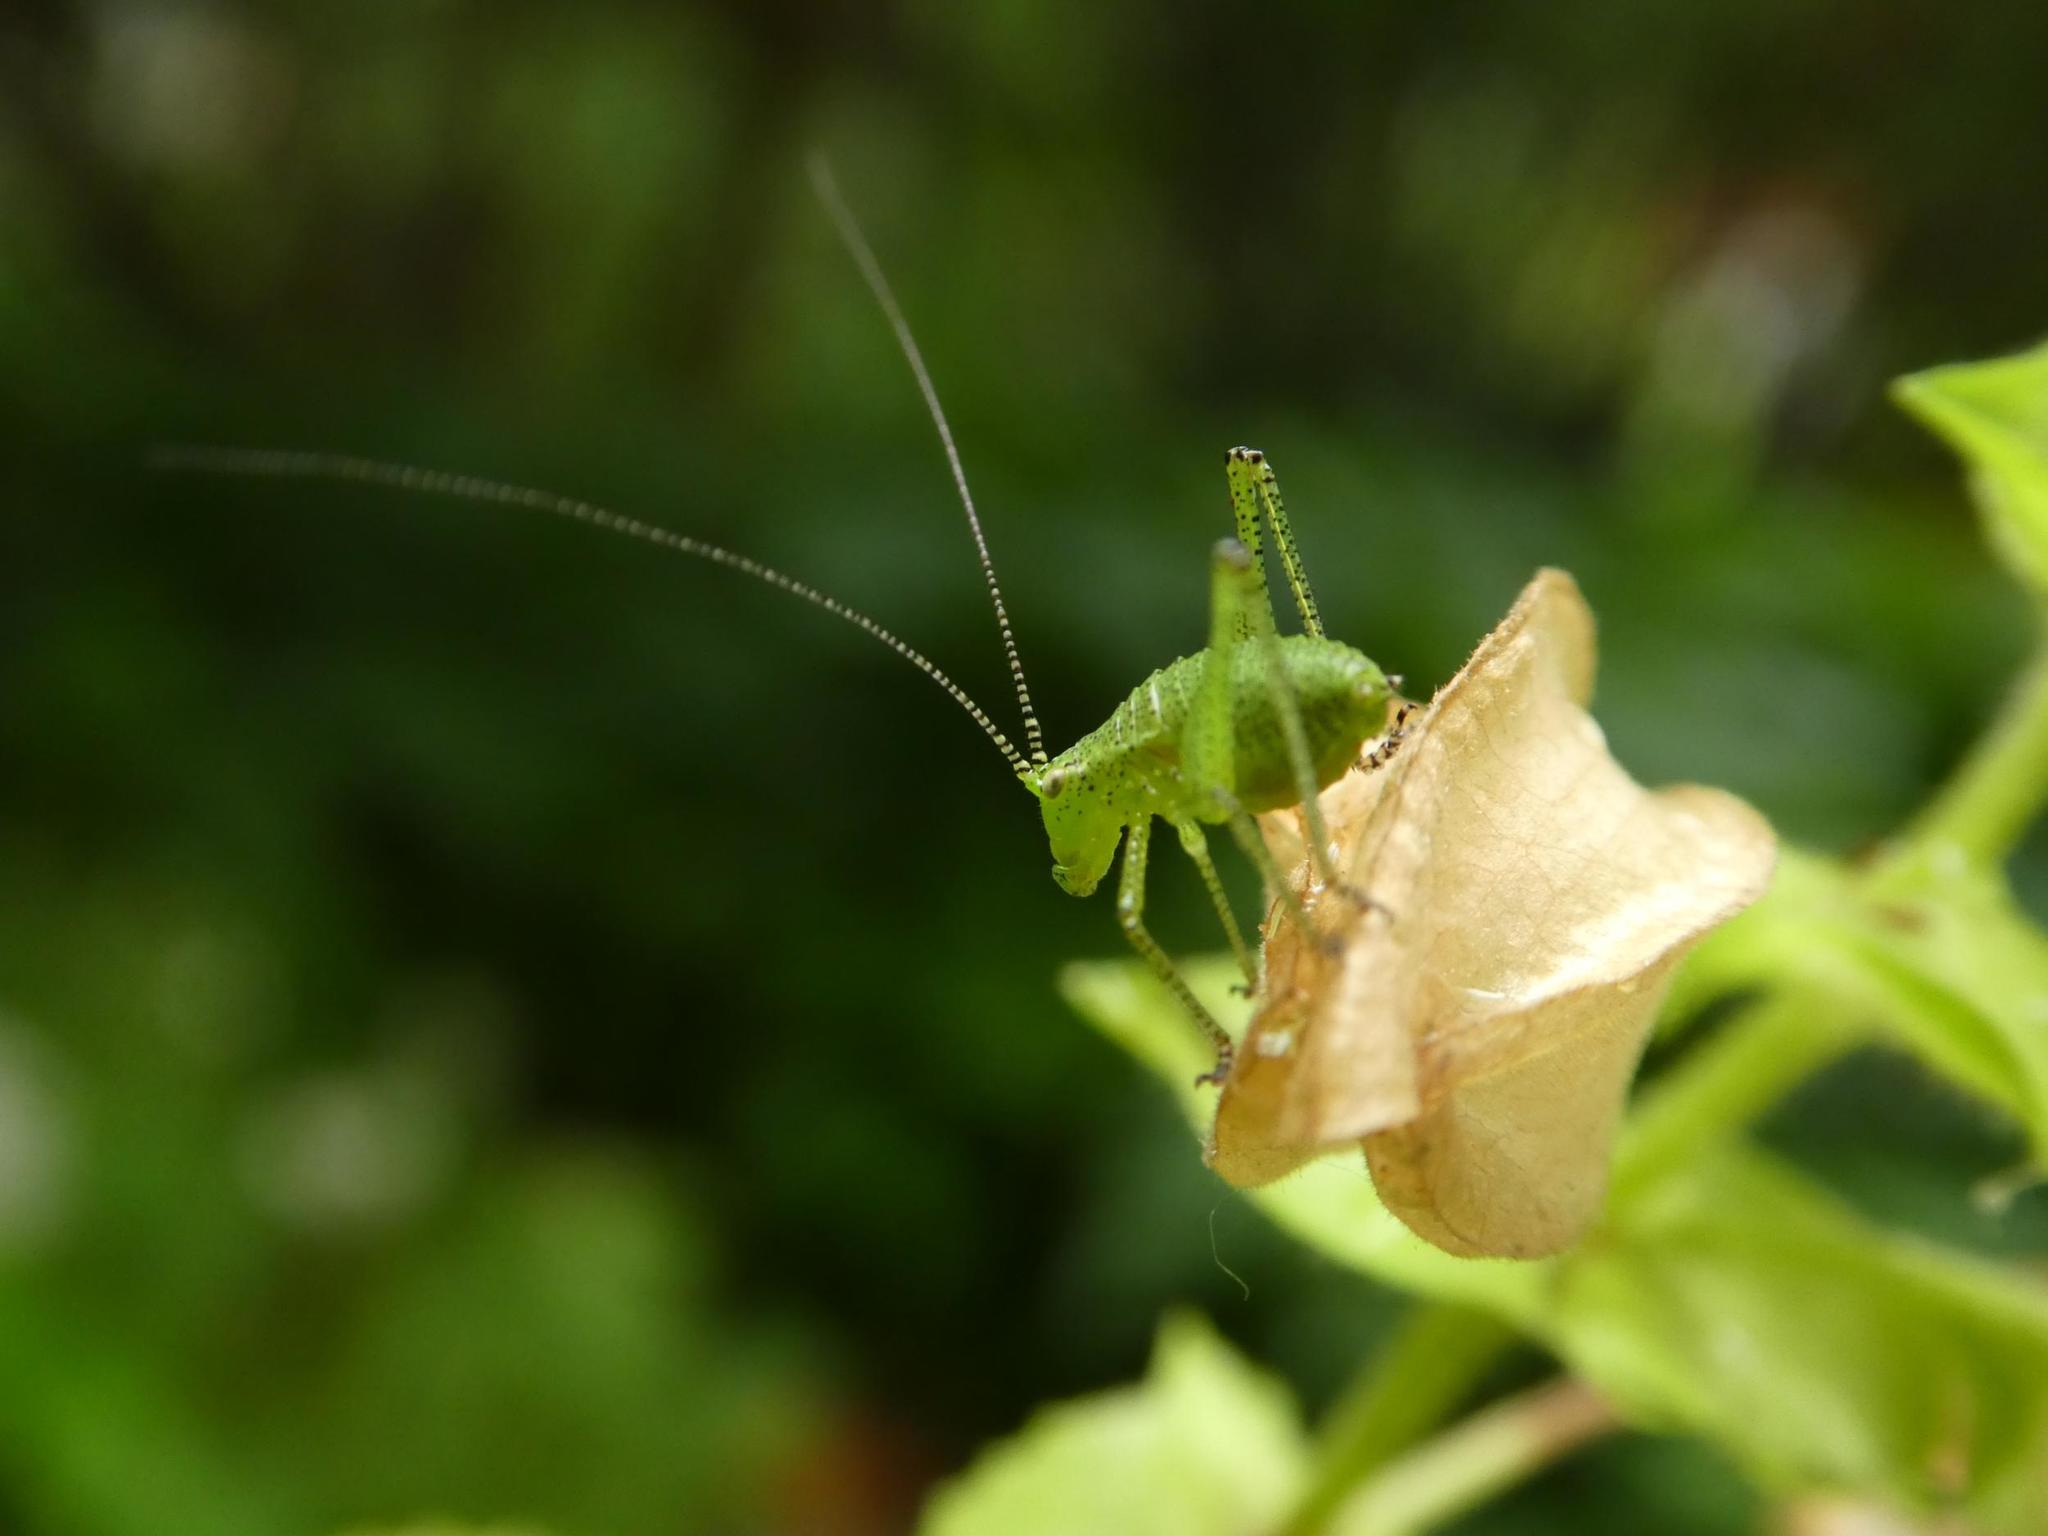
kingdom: Animalia
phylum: Arthropoda
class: Insecta
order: Orthoptera
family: Tettigoniidae
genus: Leptophyes
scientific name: Leptophyes punctatissima
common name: Speckled bush-cricket
